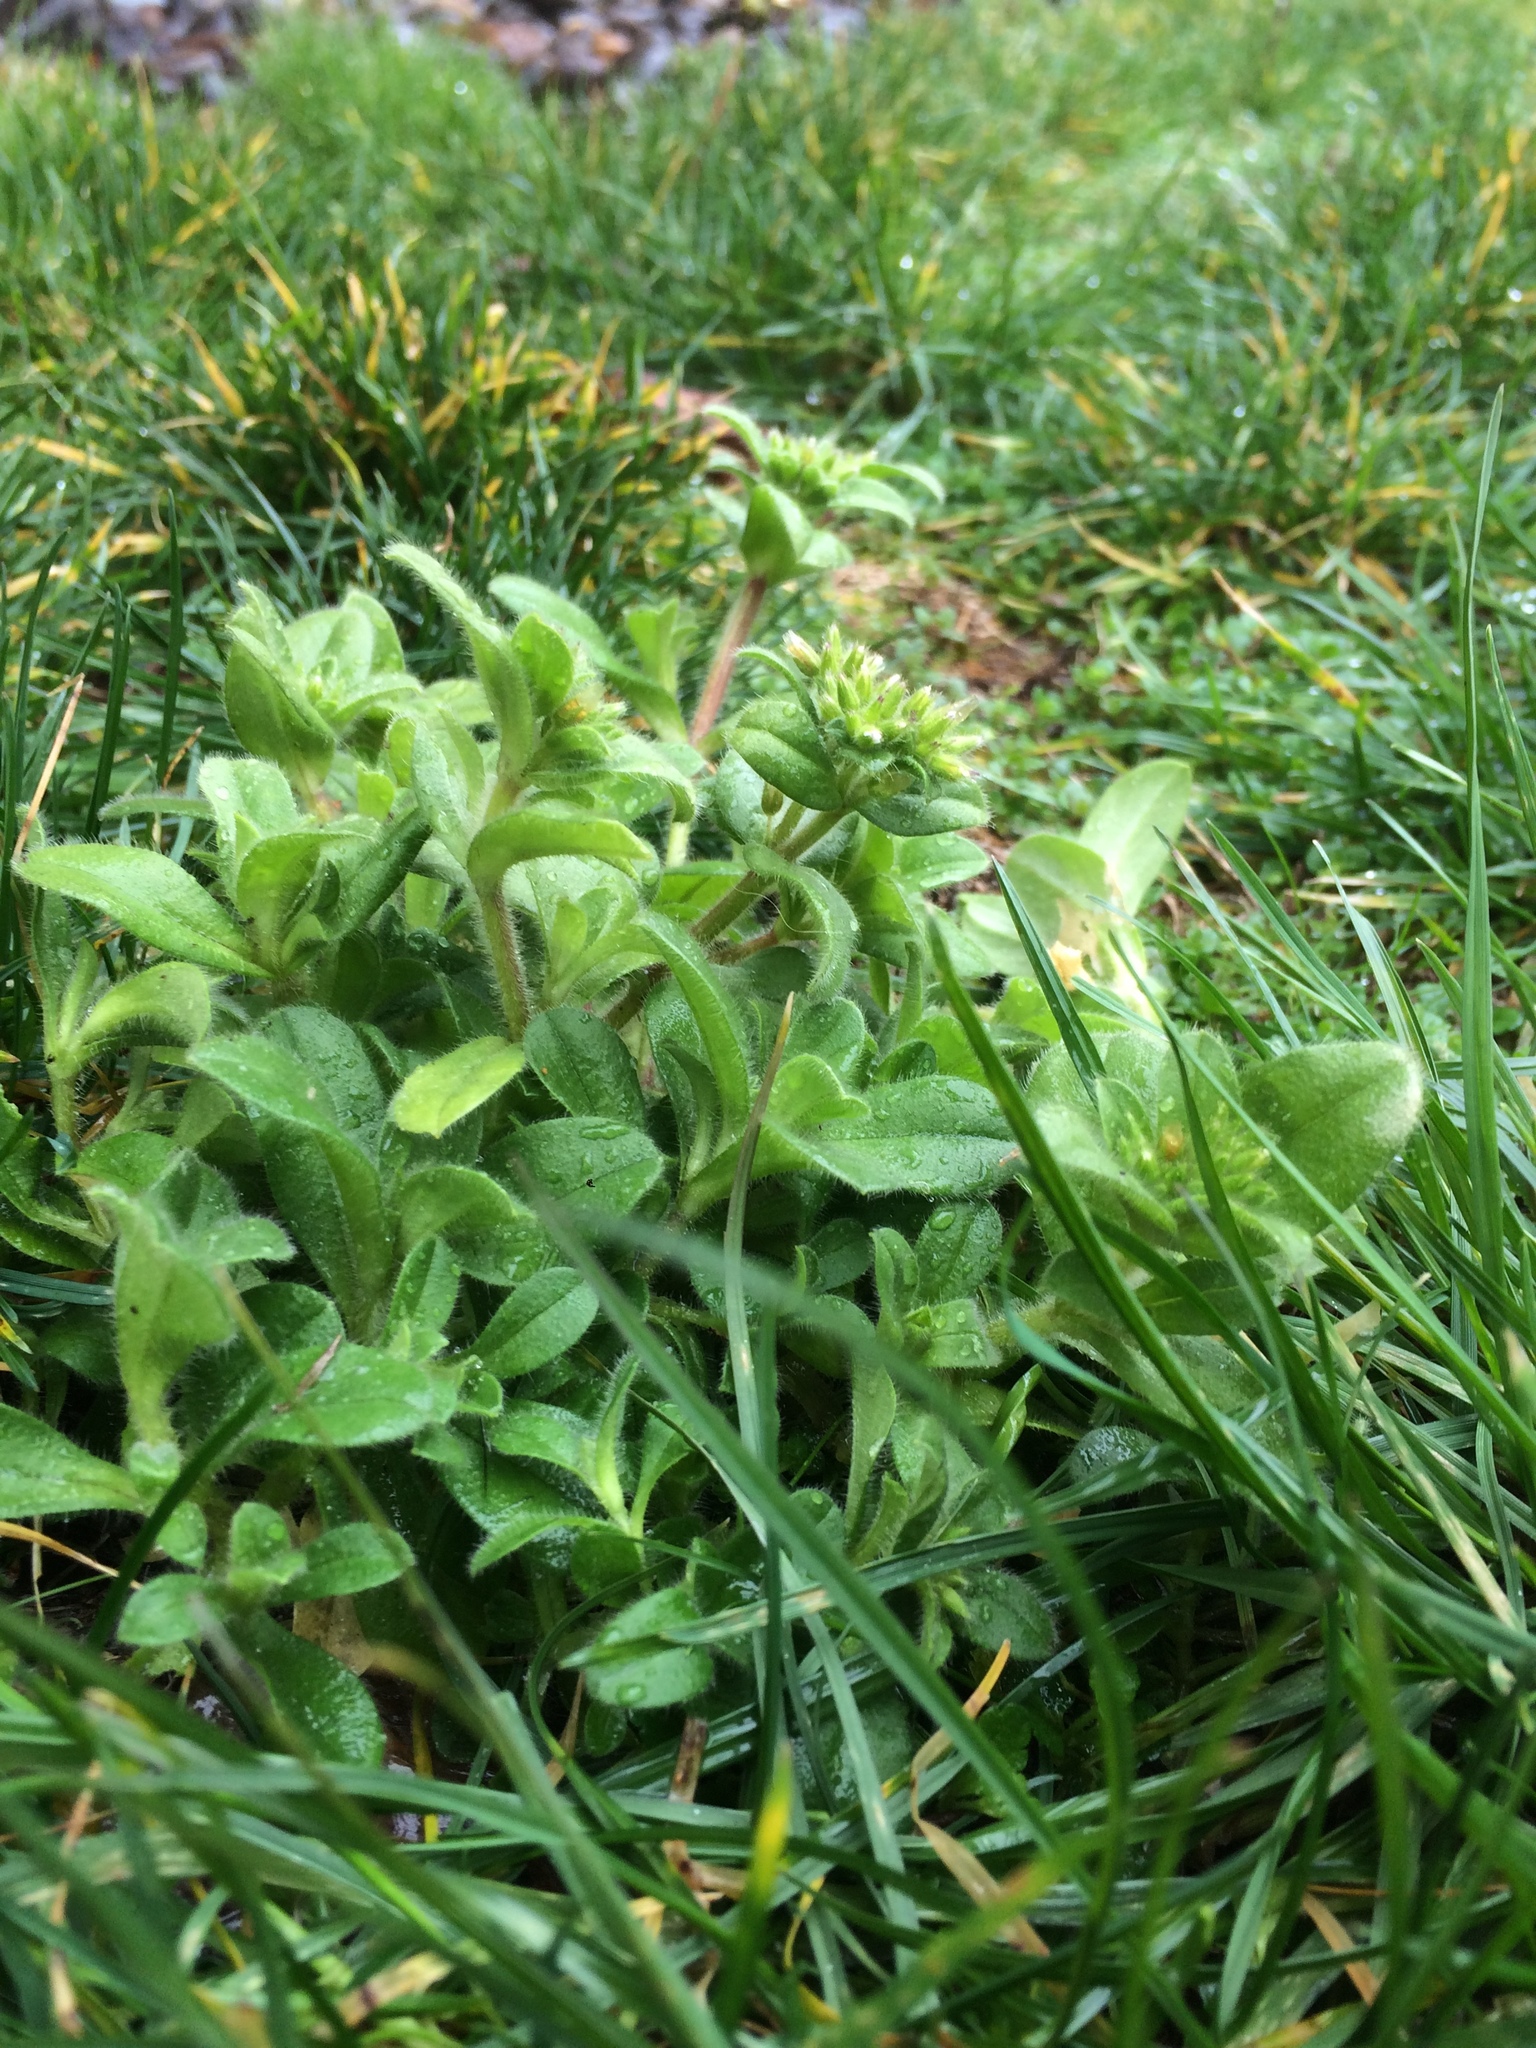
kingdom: Plantae
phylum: Tracheophyta
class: Magnoliopsida
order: Caryophyllales
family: Caryophyllaceae
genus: Cerastium
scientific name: Cerastium glomeratum
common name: Sticky chickweed
